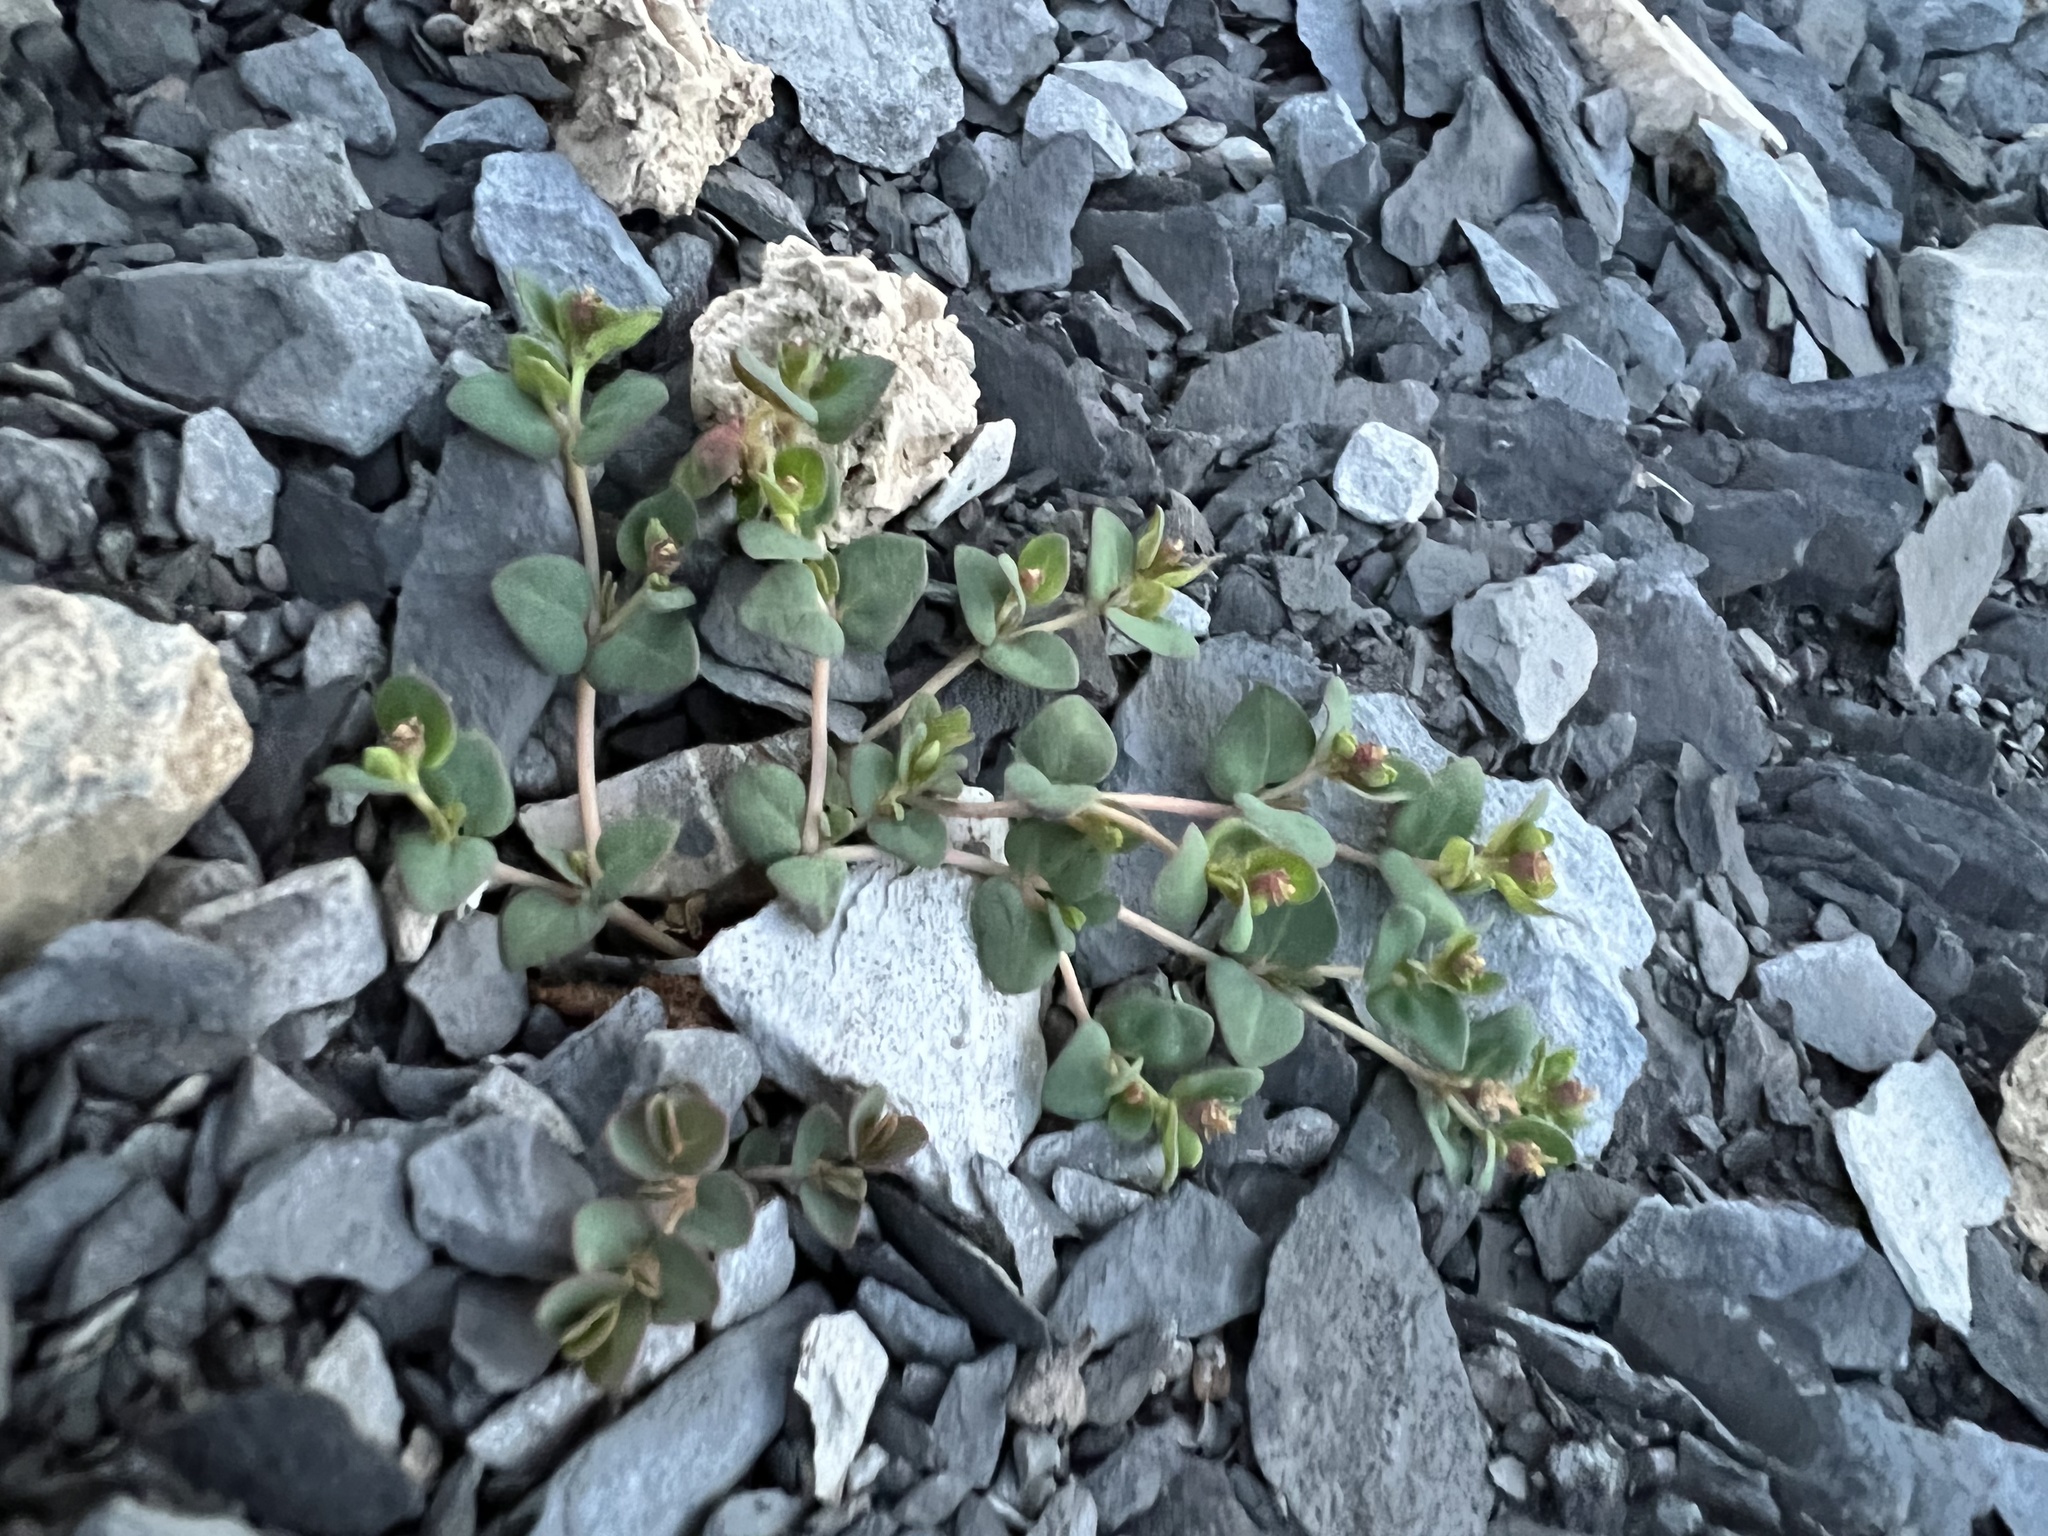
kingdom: Plantae
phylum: Tracheophyta
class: Magnoliopsida
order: Malpighiales
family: Euphorbiaceae
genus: Euphorbia
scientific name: Euphorbia fendleri
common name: Fendler's euphorbia
